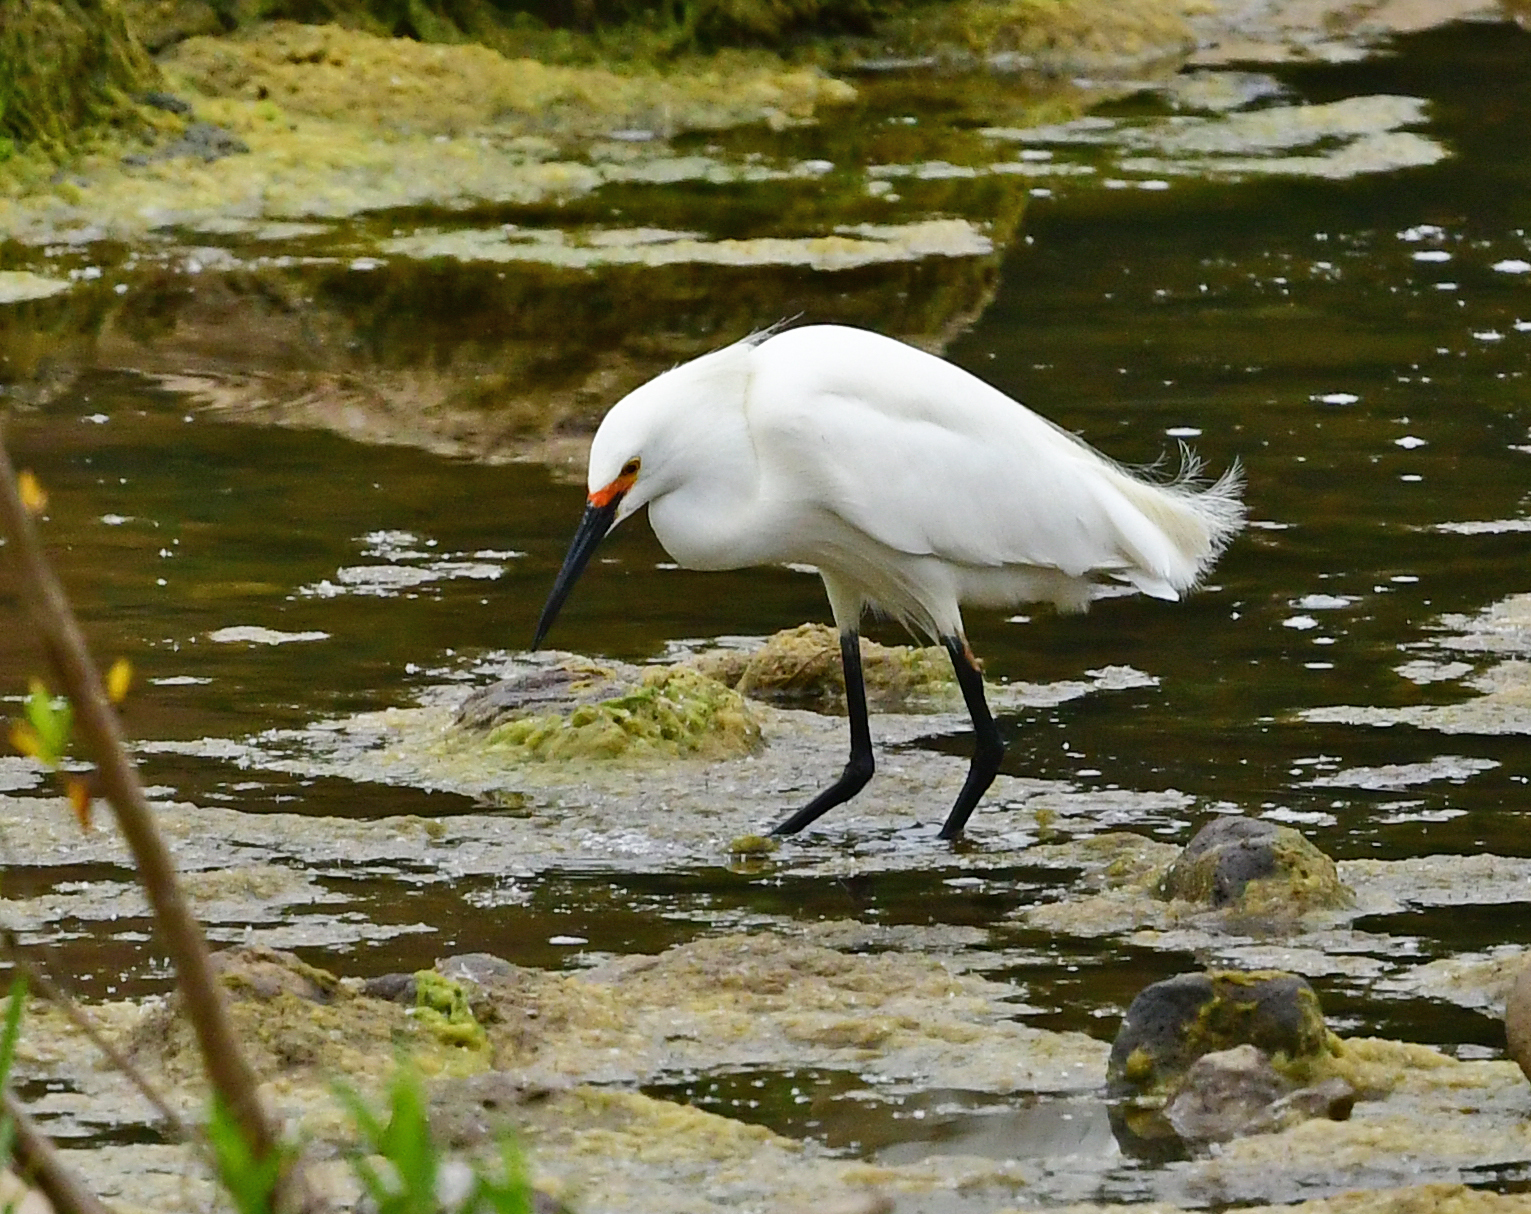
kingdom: Animalia
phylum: Chordata
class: Aves
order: Pelecaniformes
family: Ardeidae
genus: Egretta
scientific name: Egretta thula
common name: Snowy egret
